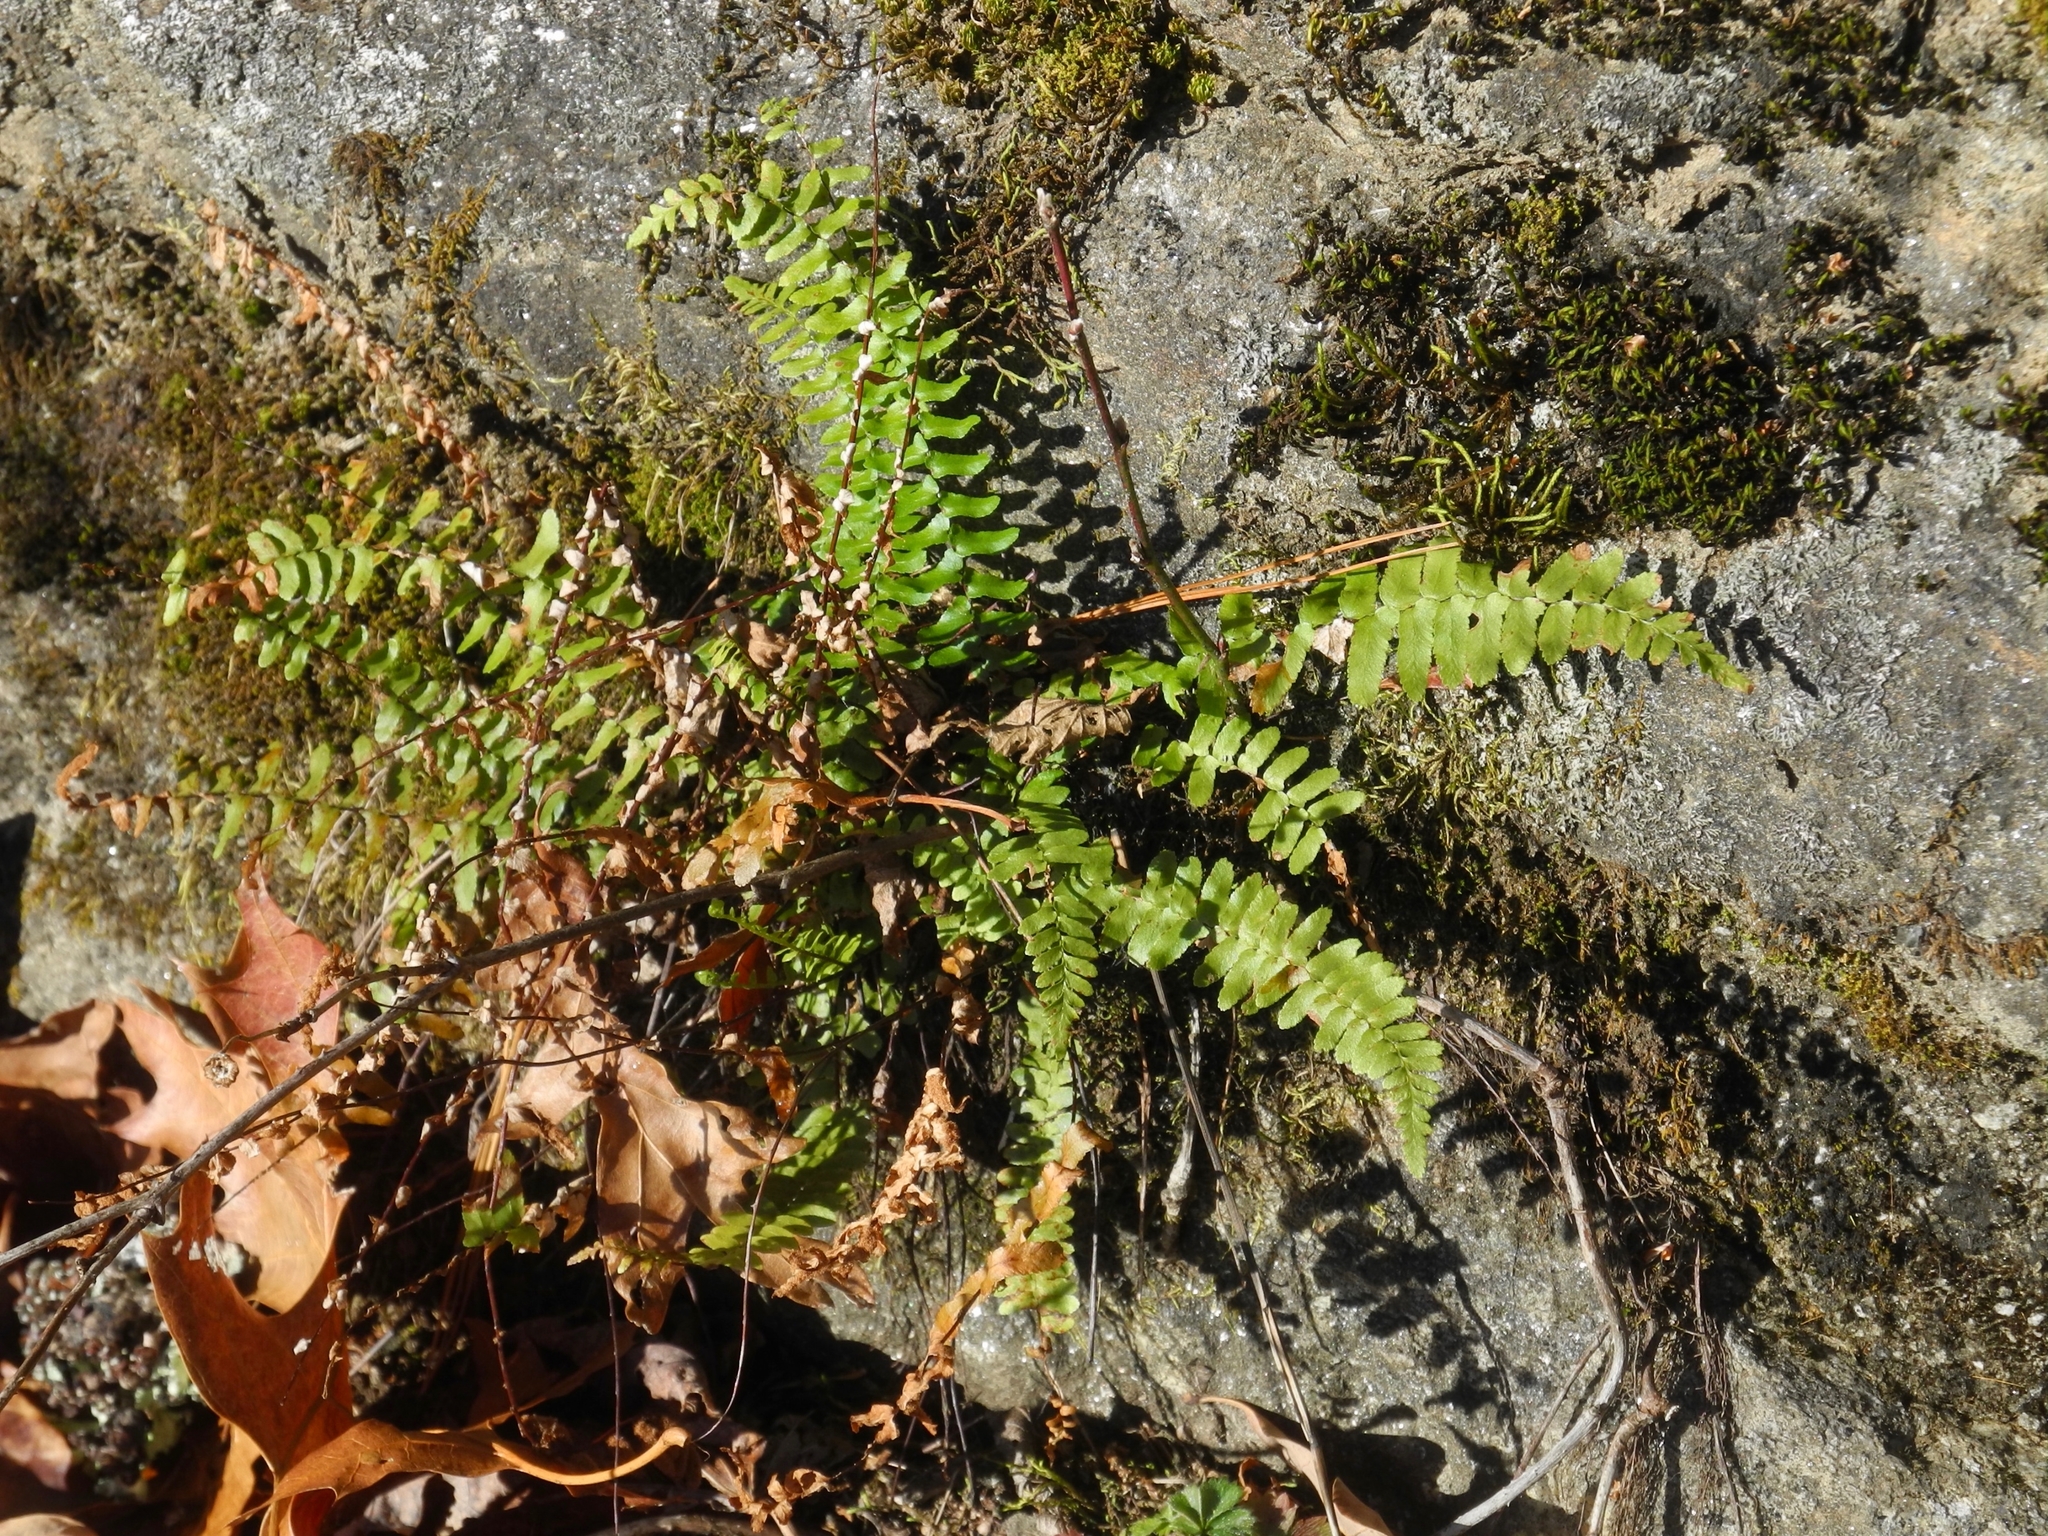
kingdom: Plantae
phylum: Tracheophyta
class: Polypodiopsida
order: Polypodiales
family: Aspleniaceae
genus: Asplenium
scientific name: Asplenium platyneuron
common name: Ebony spleenwort
